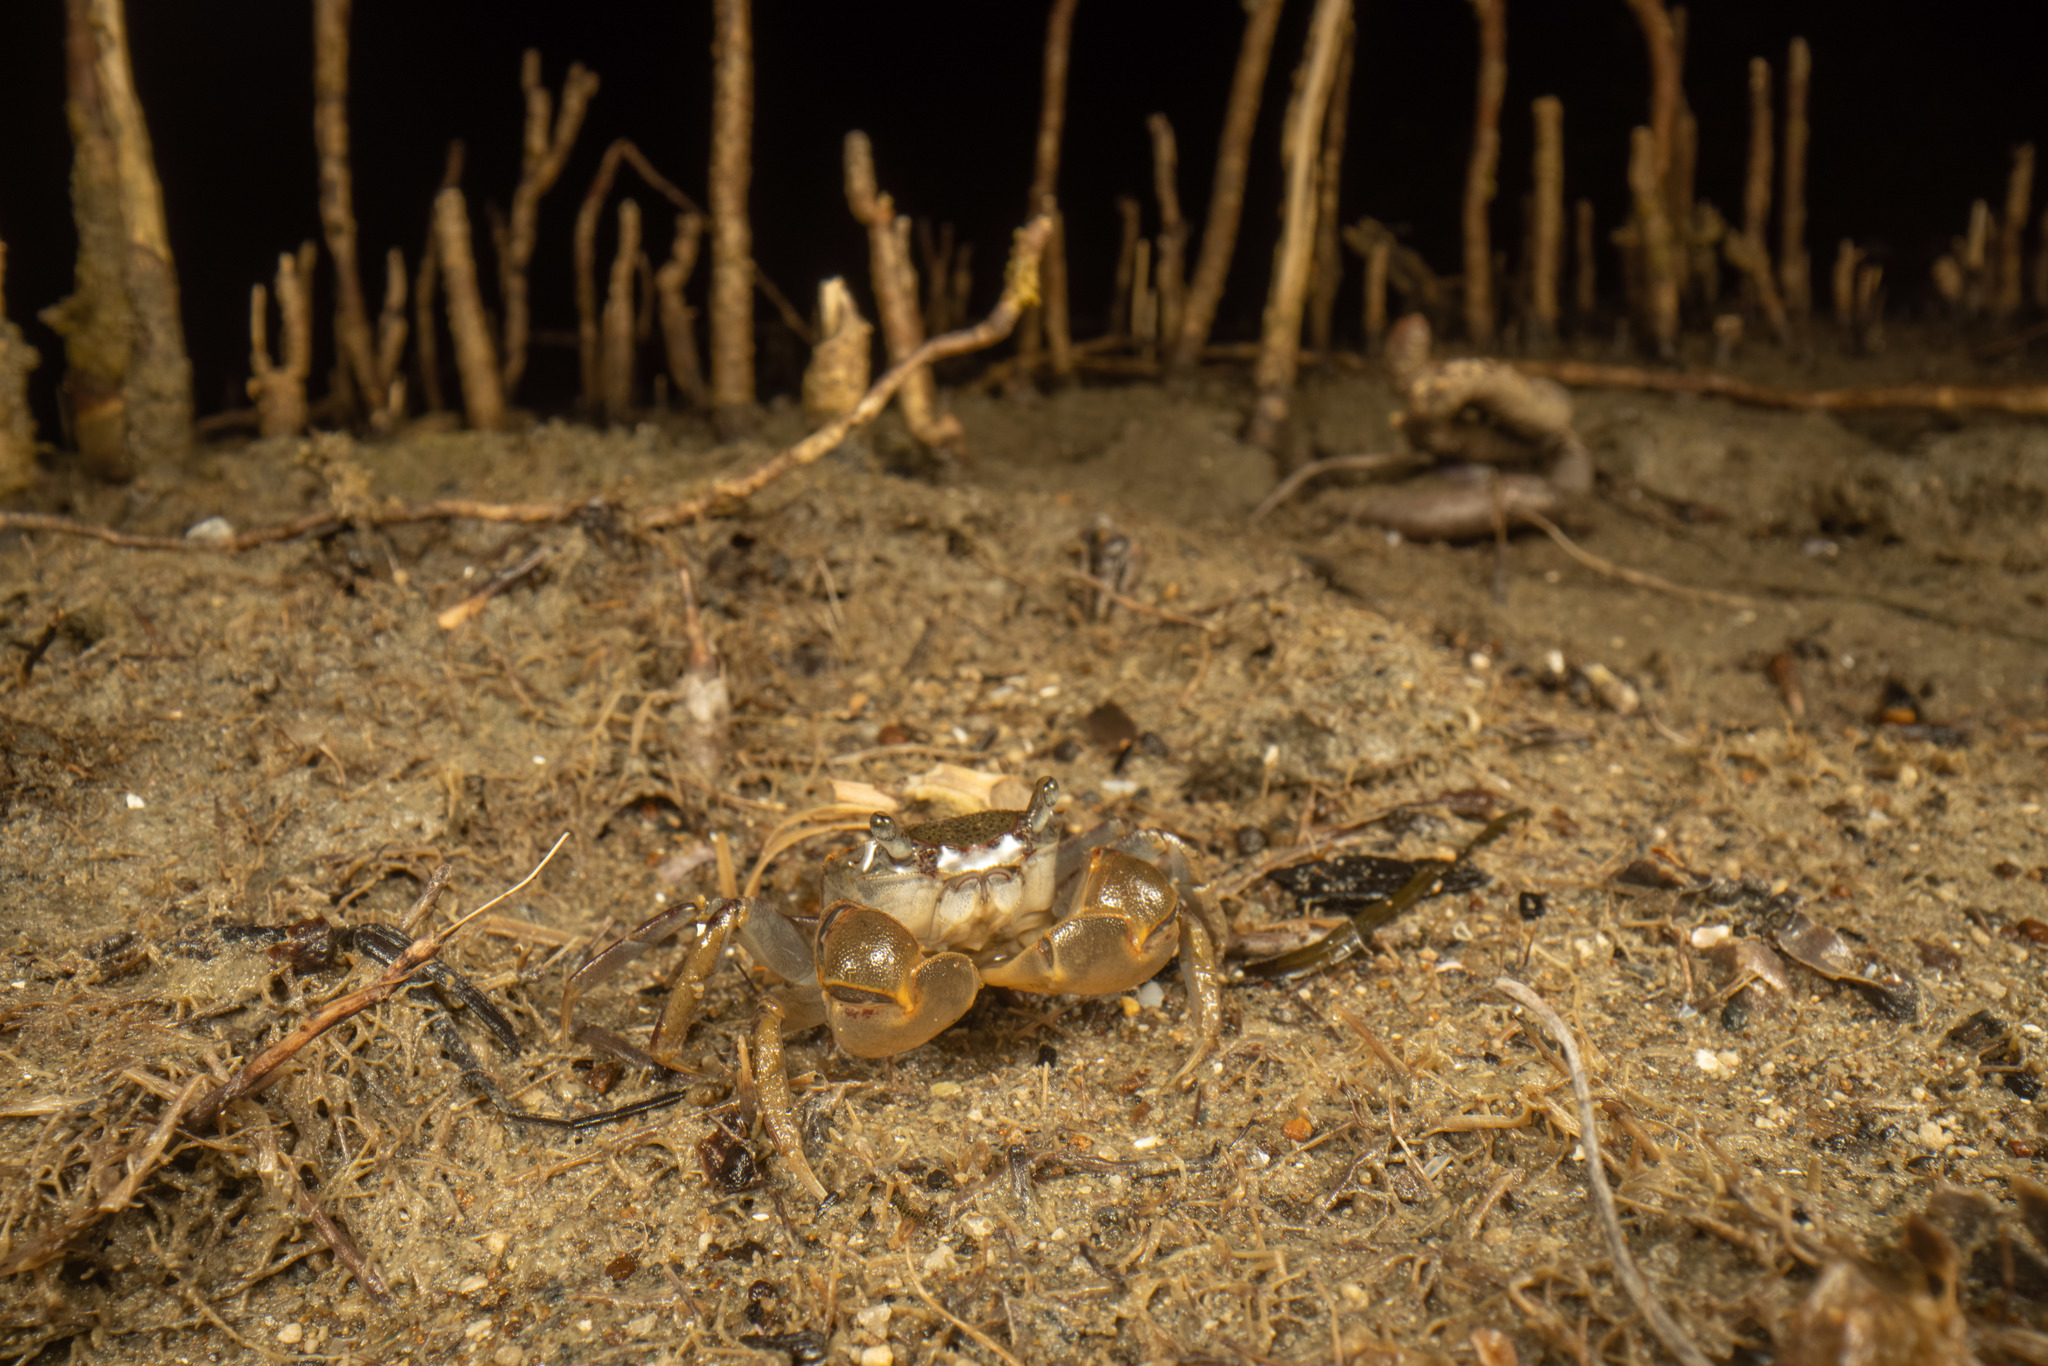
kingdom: Animalia
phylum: Arthropoda
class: Malacostraca
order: Decapoda
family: Varunidae
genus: Austrohelice
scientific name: Austrohelice crassa
